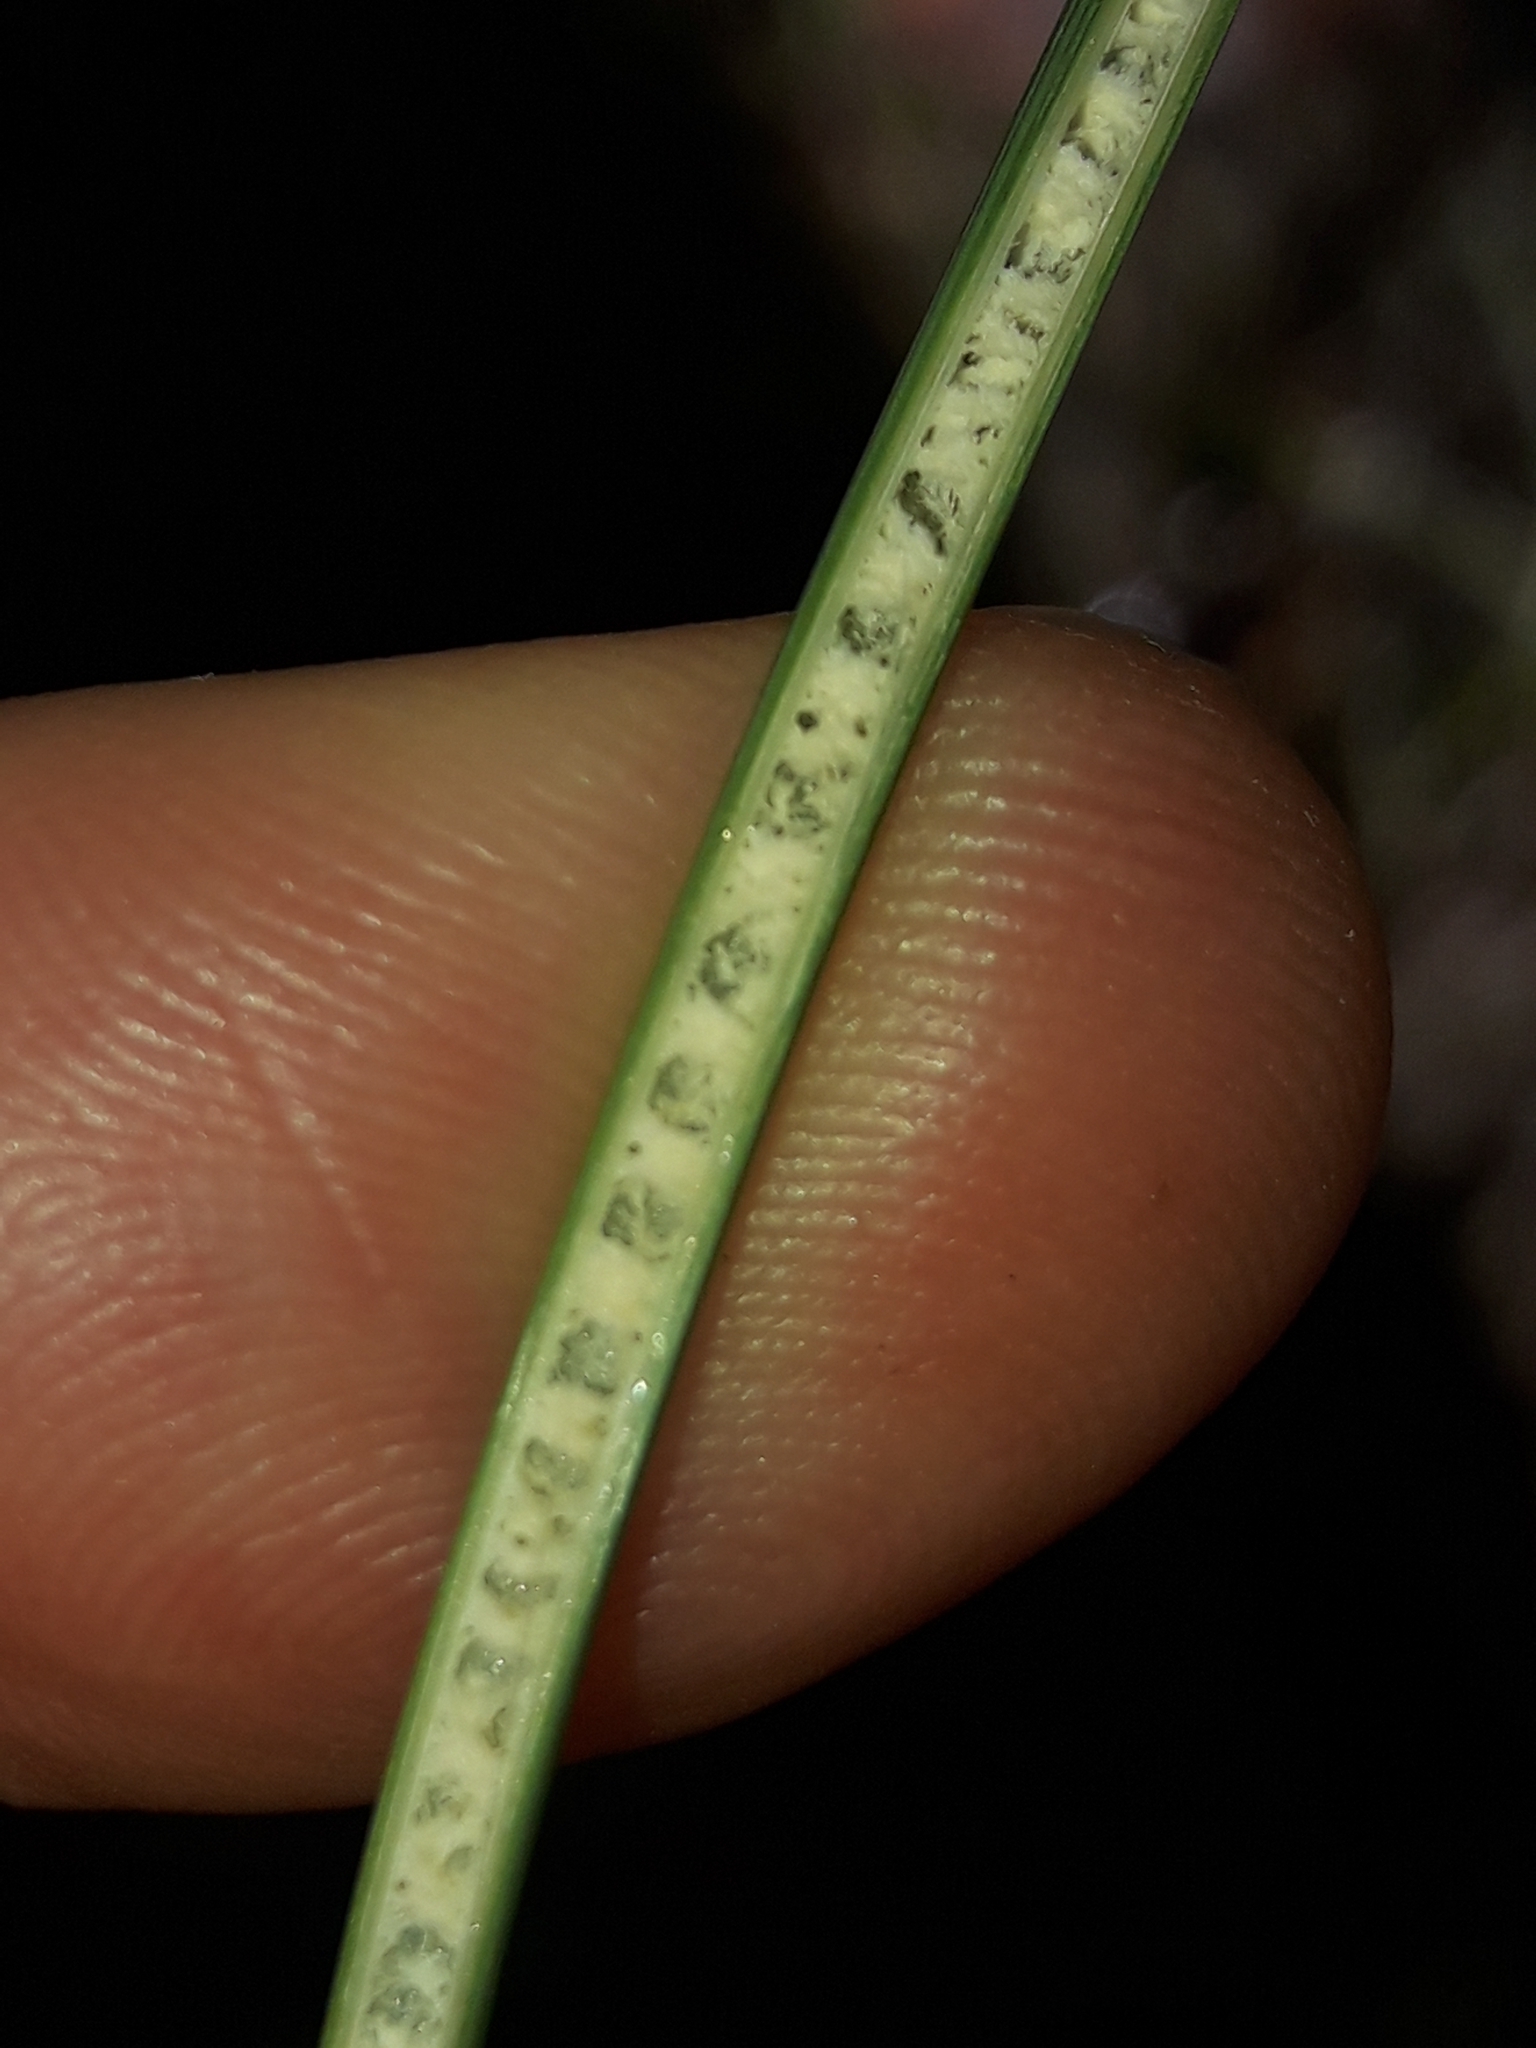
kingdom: Plantae
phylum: Tracheophyta
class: Liliopsida
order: Poales
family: Juncaceae
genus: Juncus
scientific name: Juncus sarophorus
